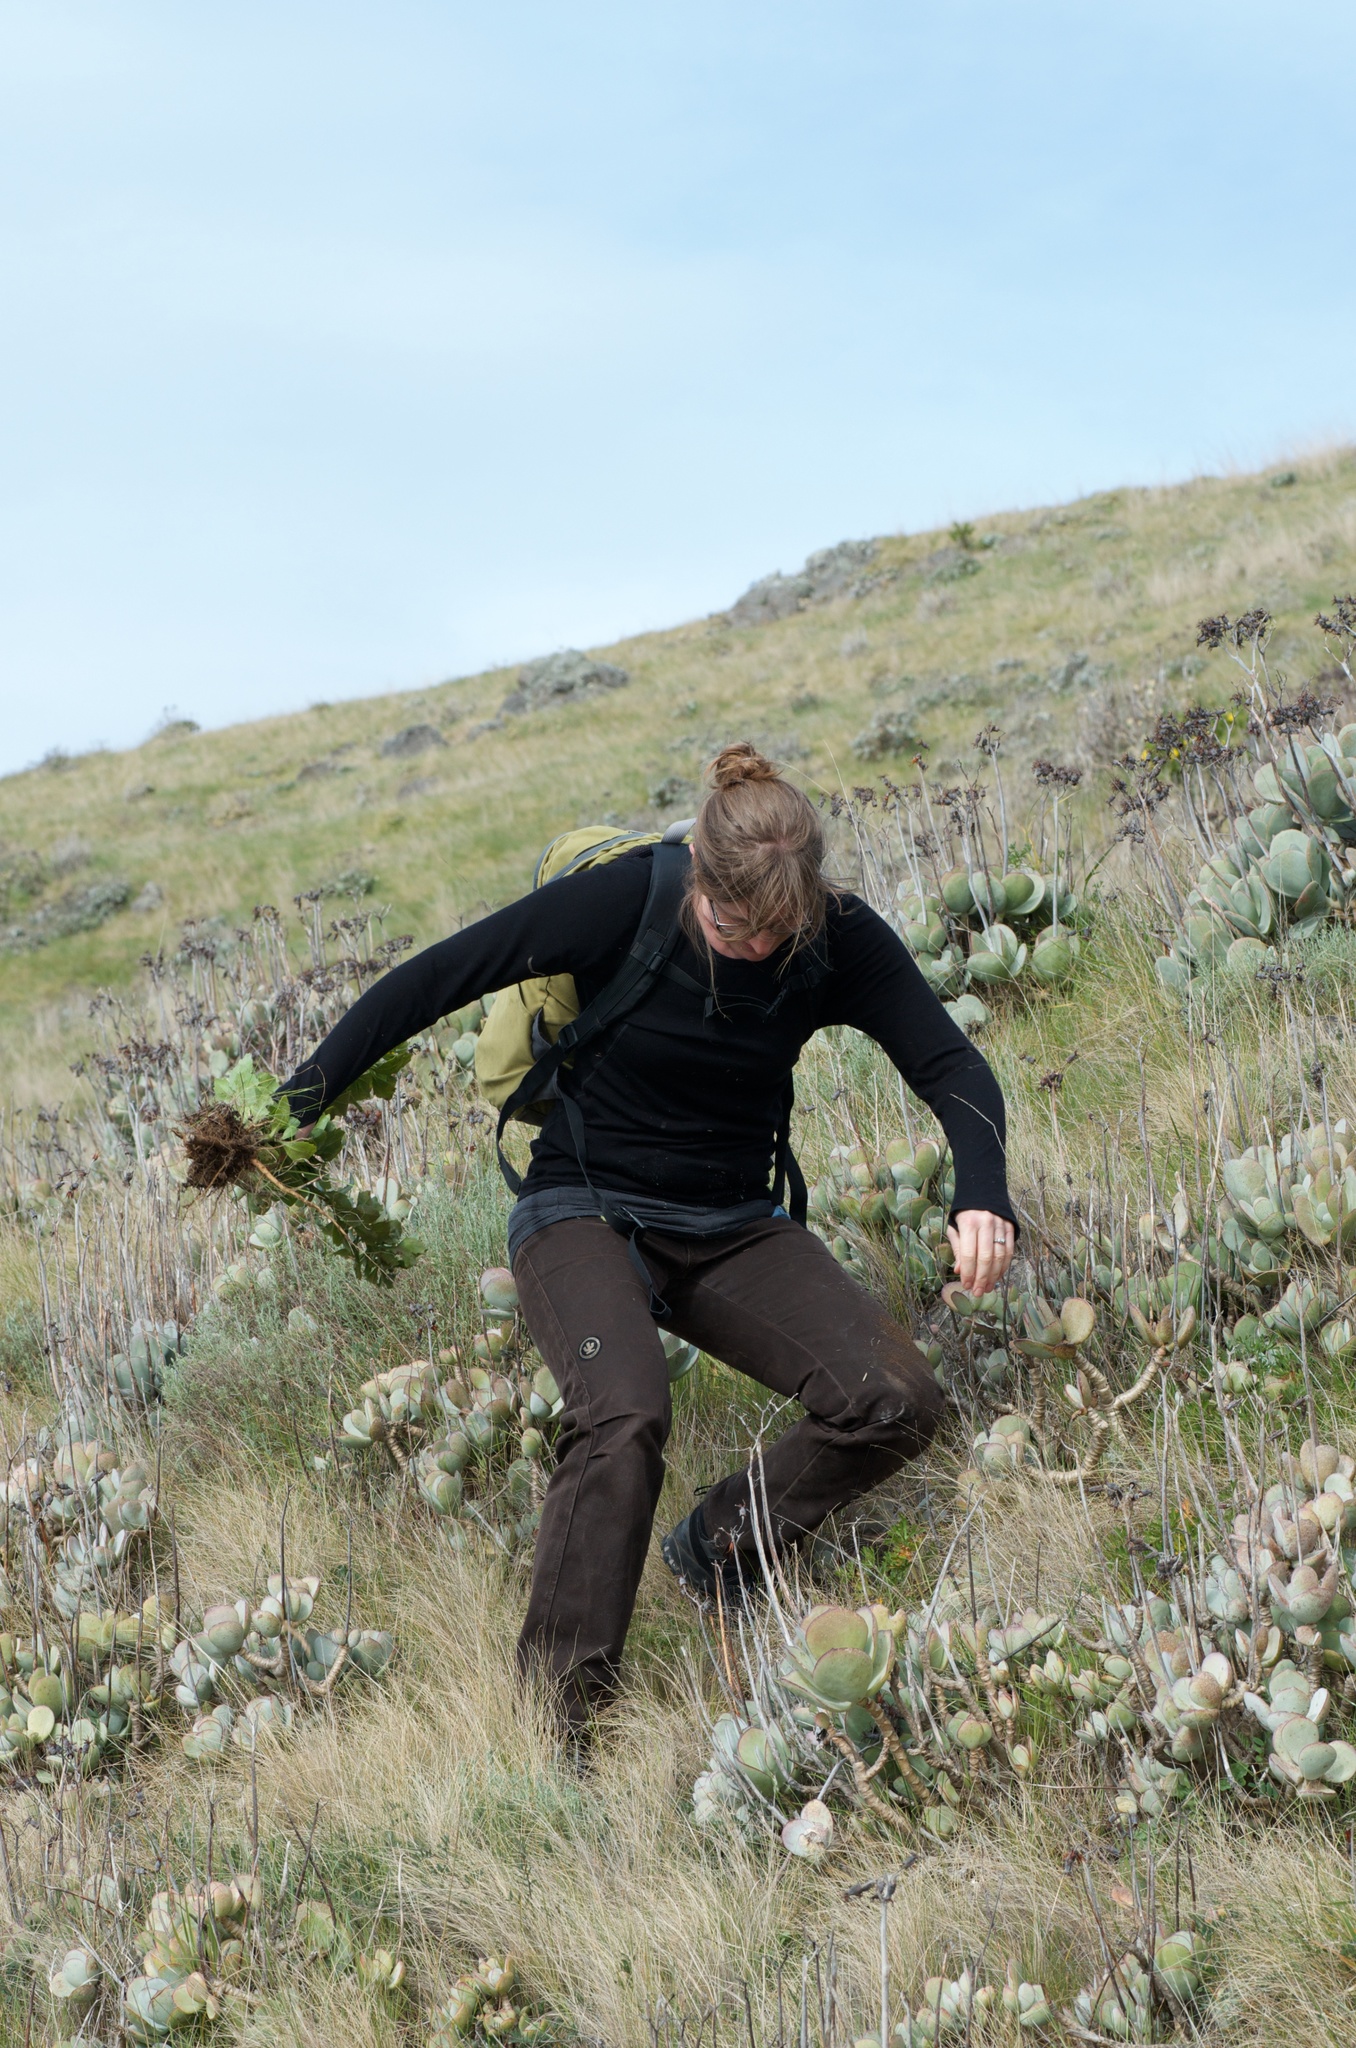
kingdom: Plantae
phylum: Tracheophyta
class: Magnoliopsida
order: Asterales
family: Asteraceae
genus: Osteospermum
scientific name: Osteospermum moniliferum
